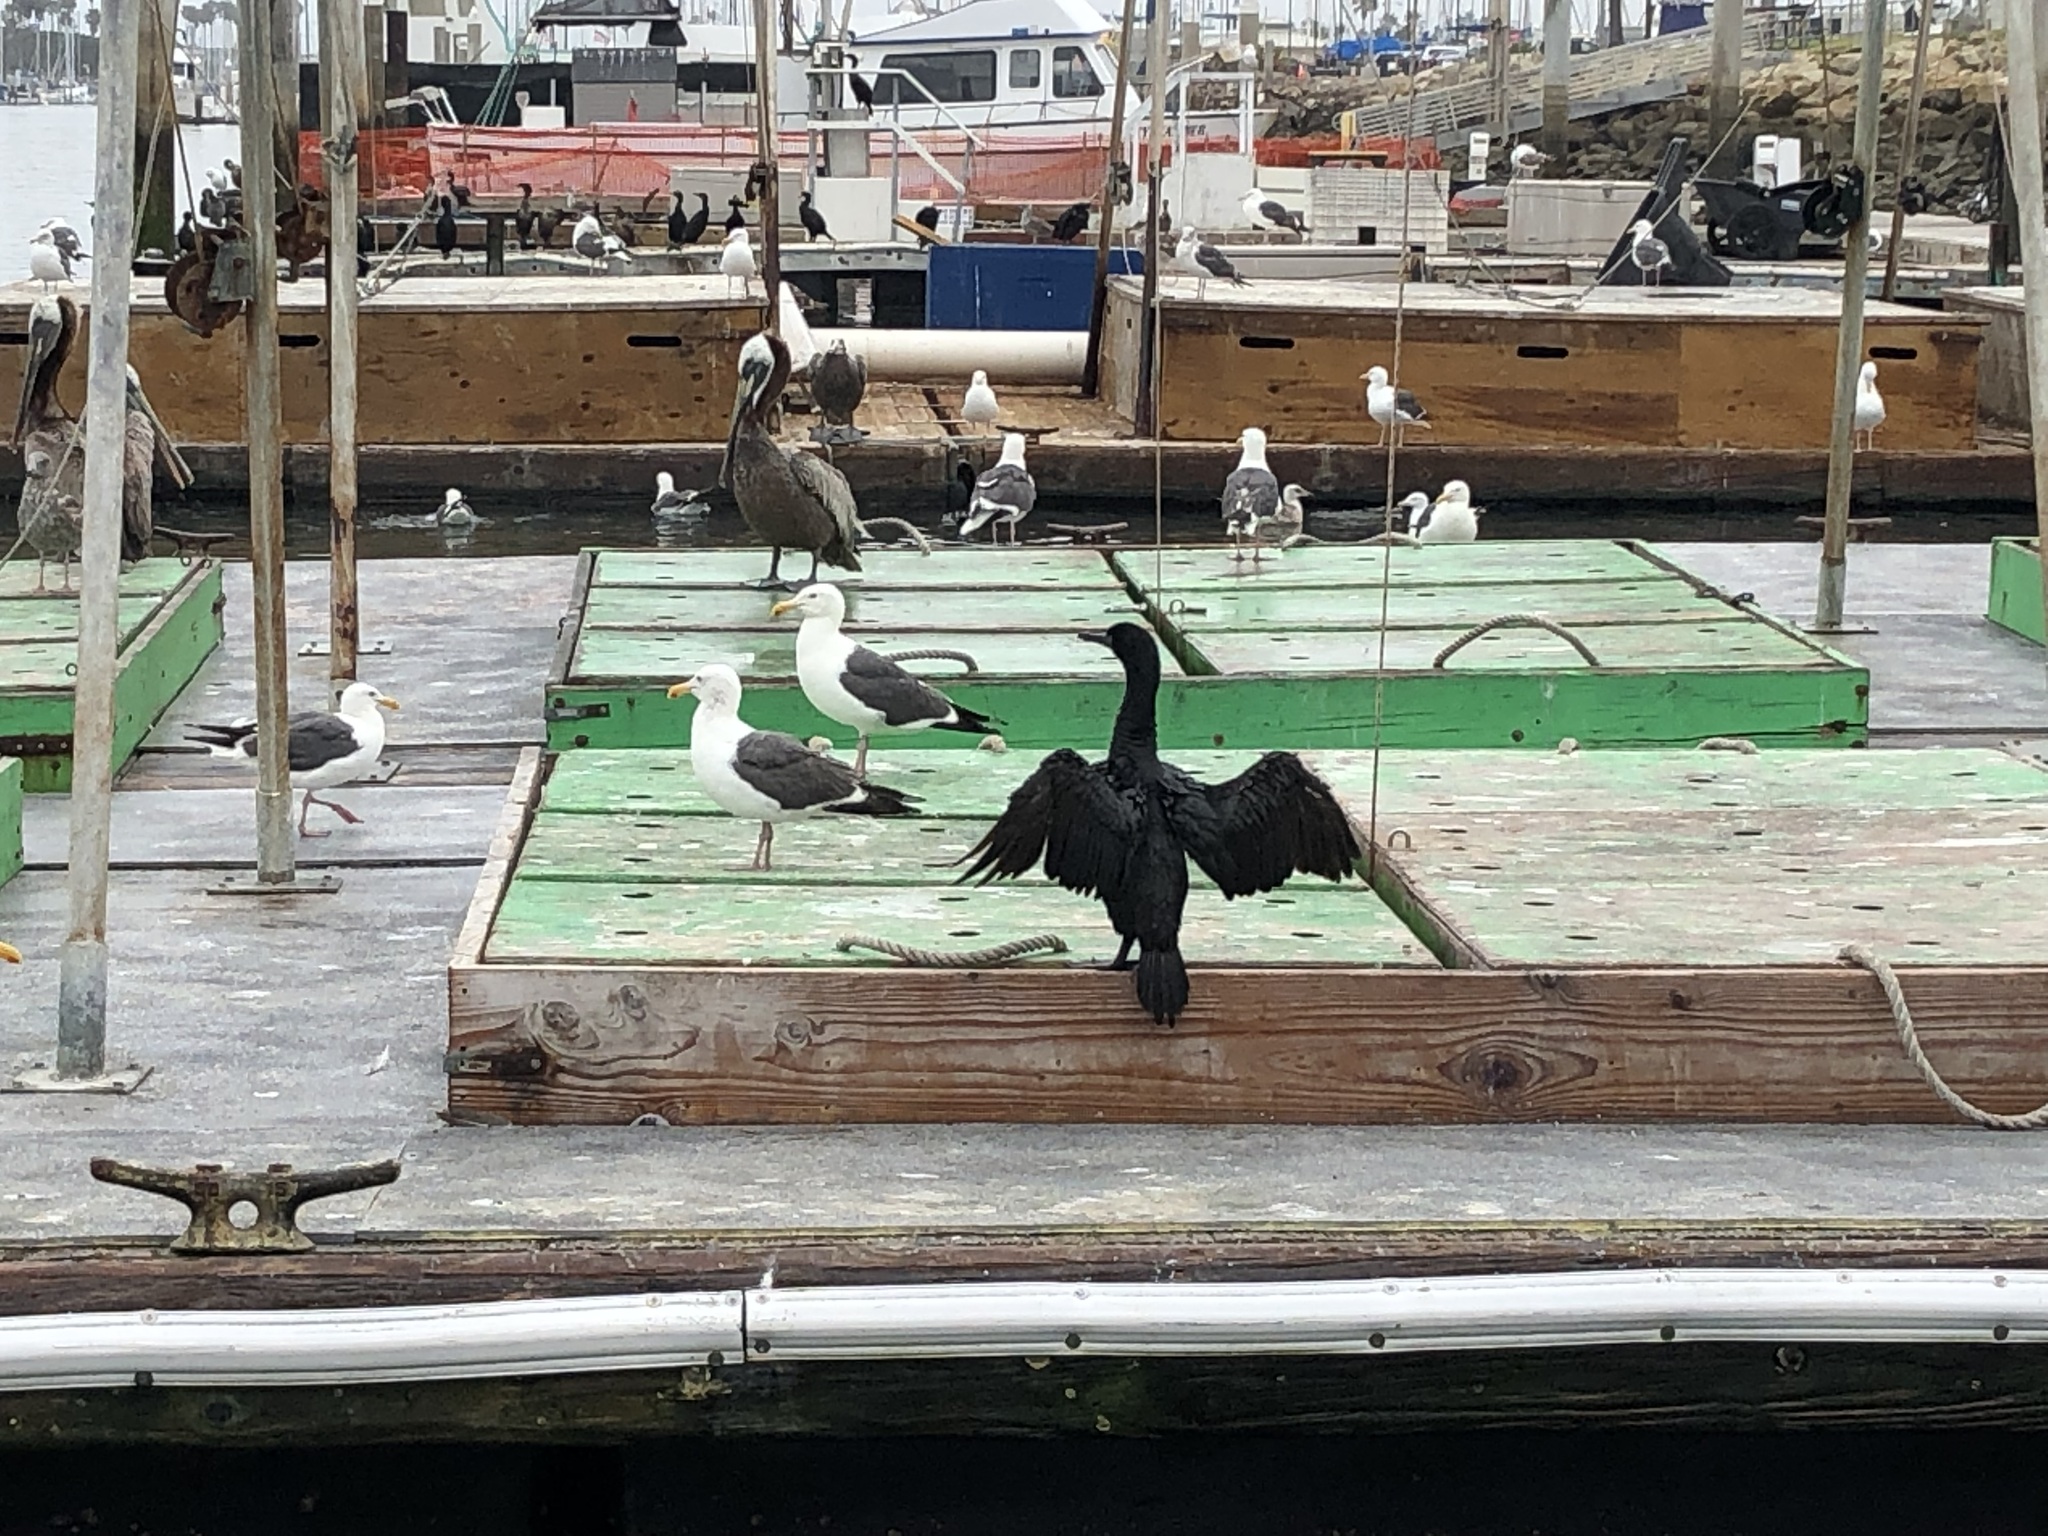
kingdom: Animalia
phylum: Chordata
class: Aves
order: Suliformes
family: Phalacrocoracidae
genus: Urile
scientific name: Urile penicillatus
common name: Brandt's cormorant
